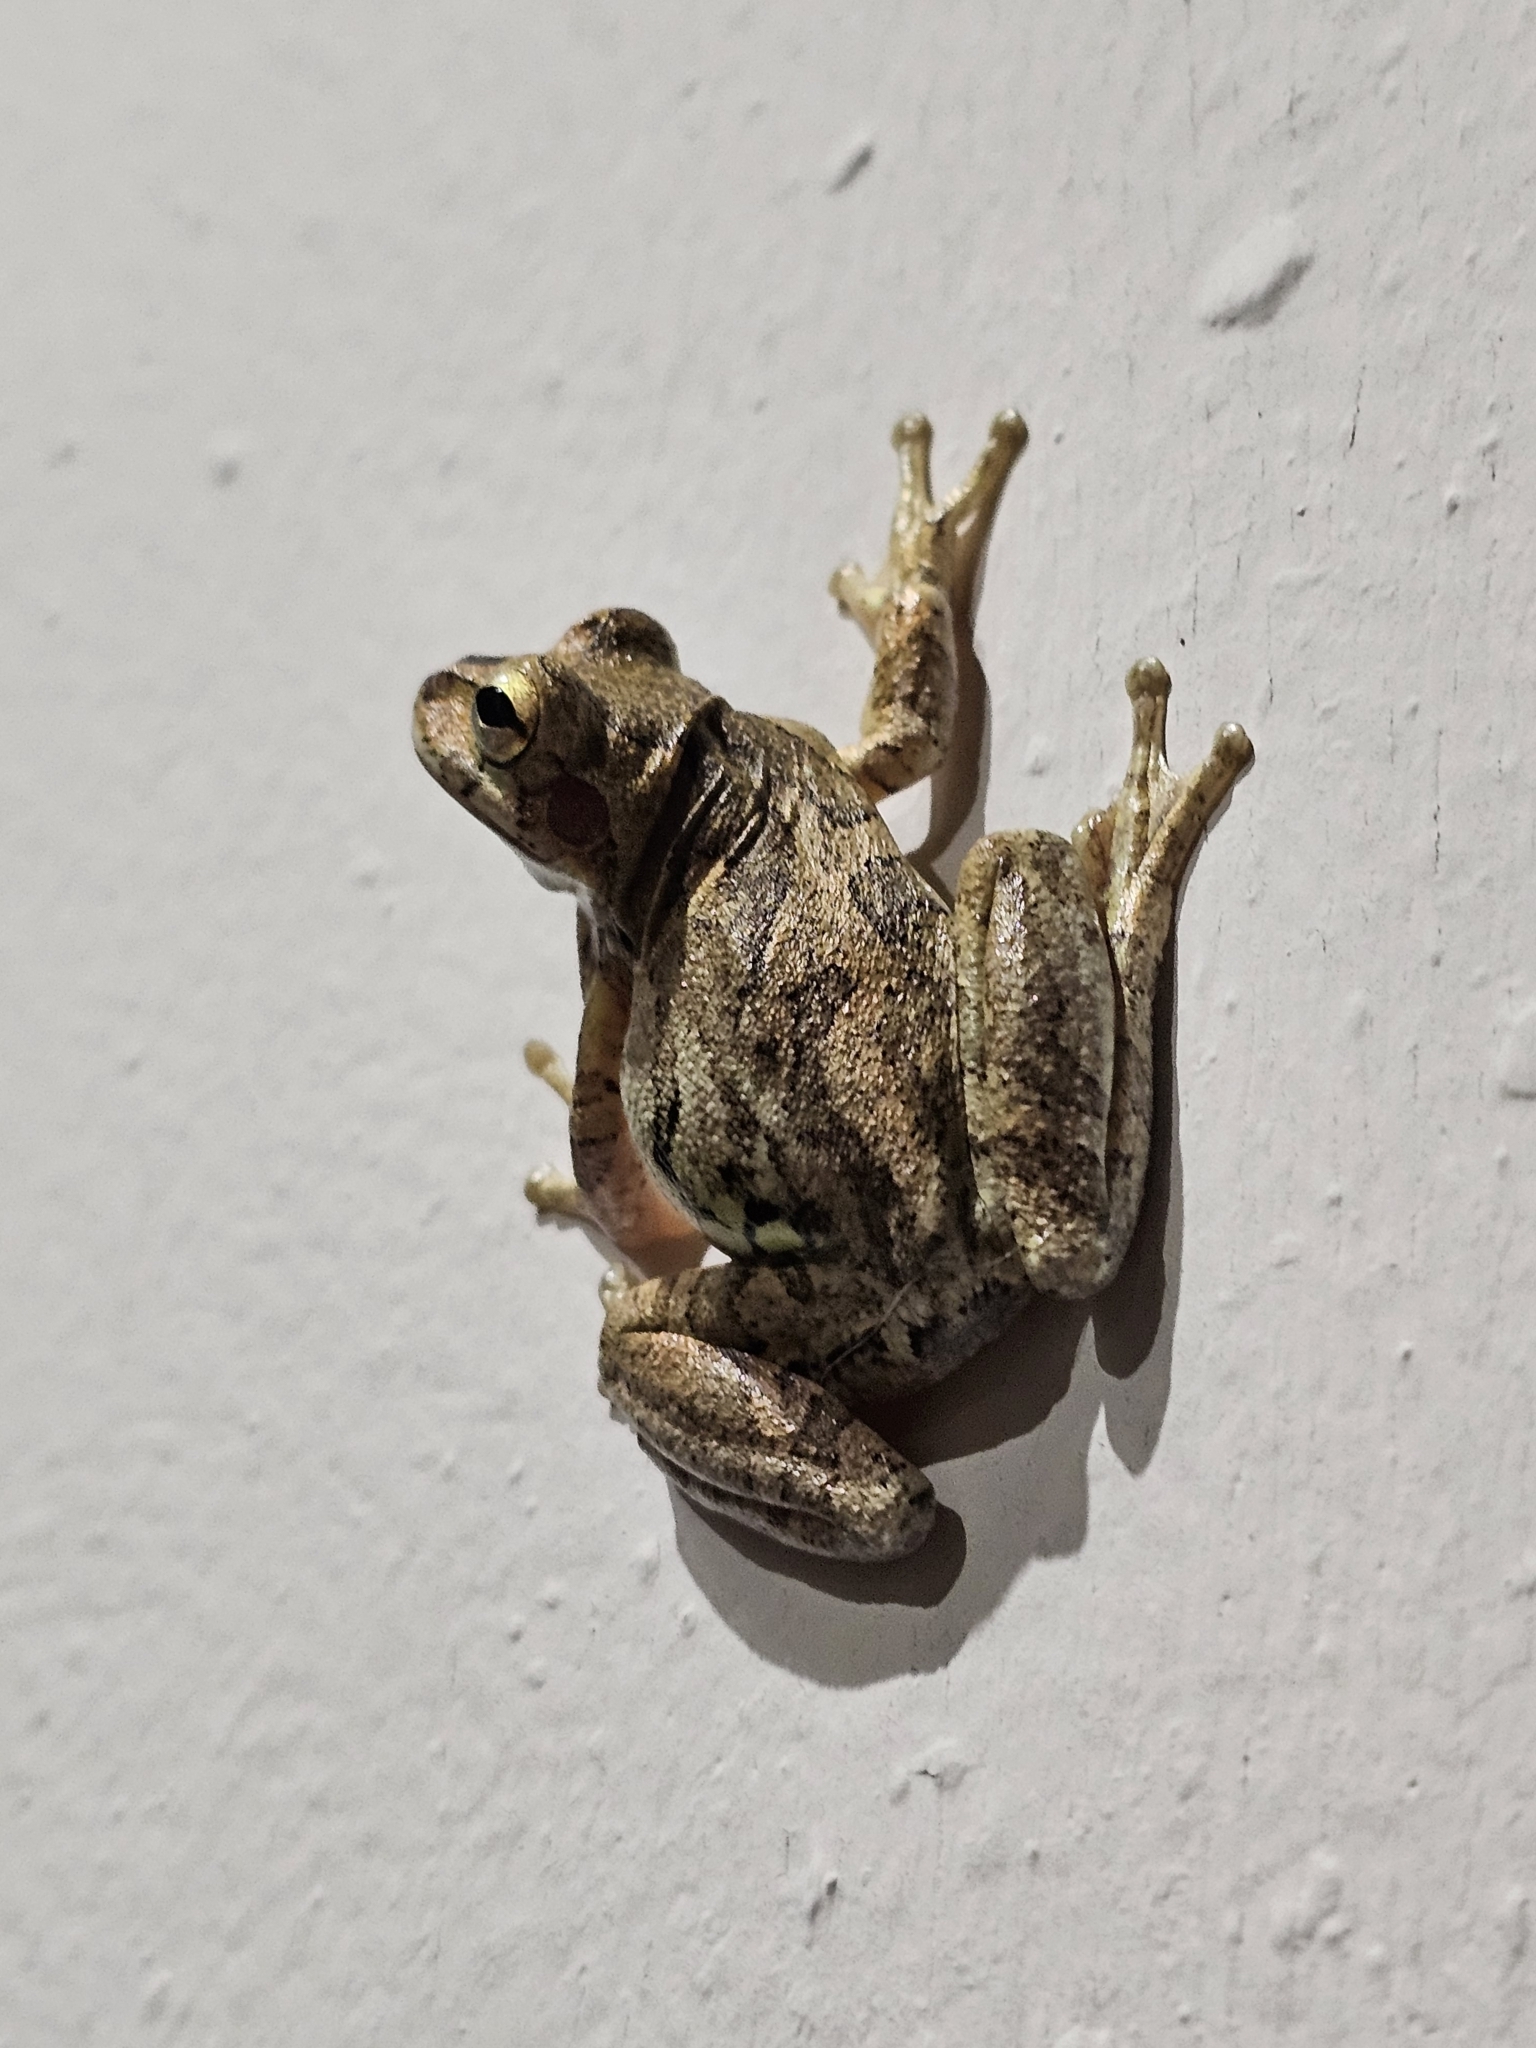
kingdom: Animalia
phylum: Chordata
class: Amphibia
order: Anura
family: Hylidae
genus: Smilisca
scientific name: Smilisca baudinii
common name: Mexican smilisca
